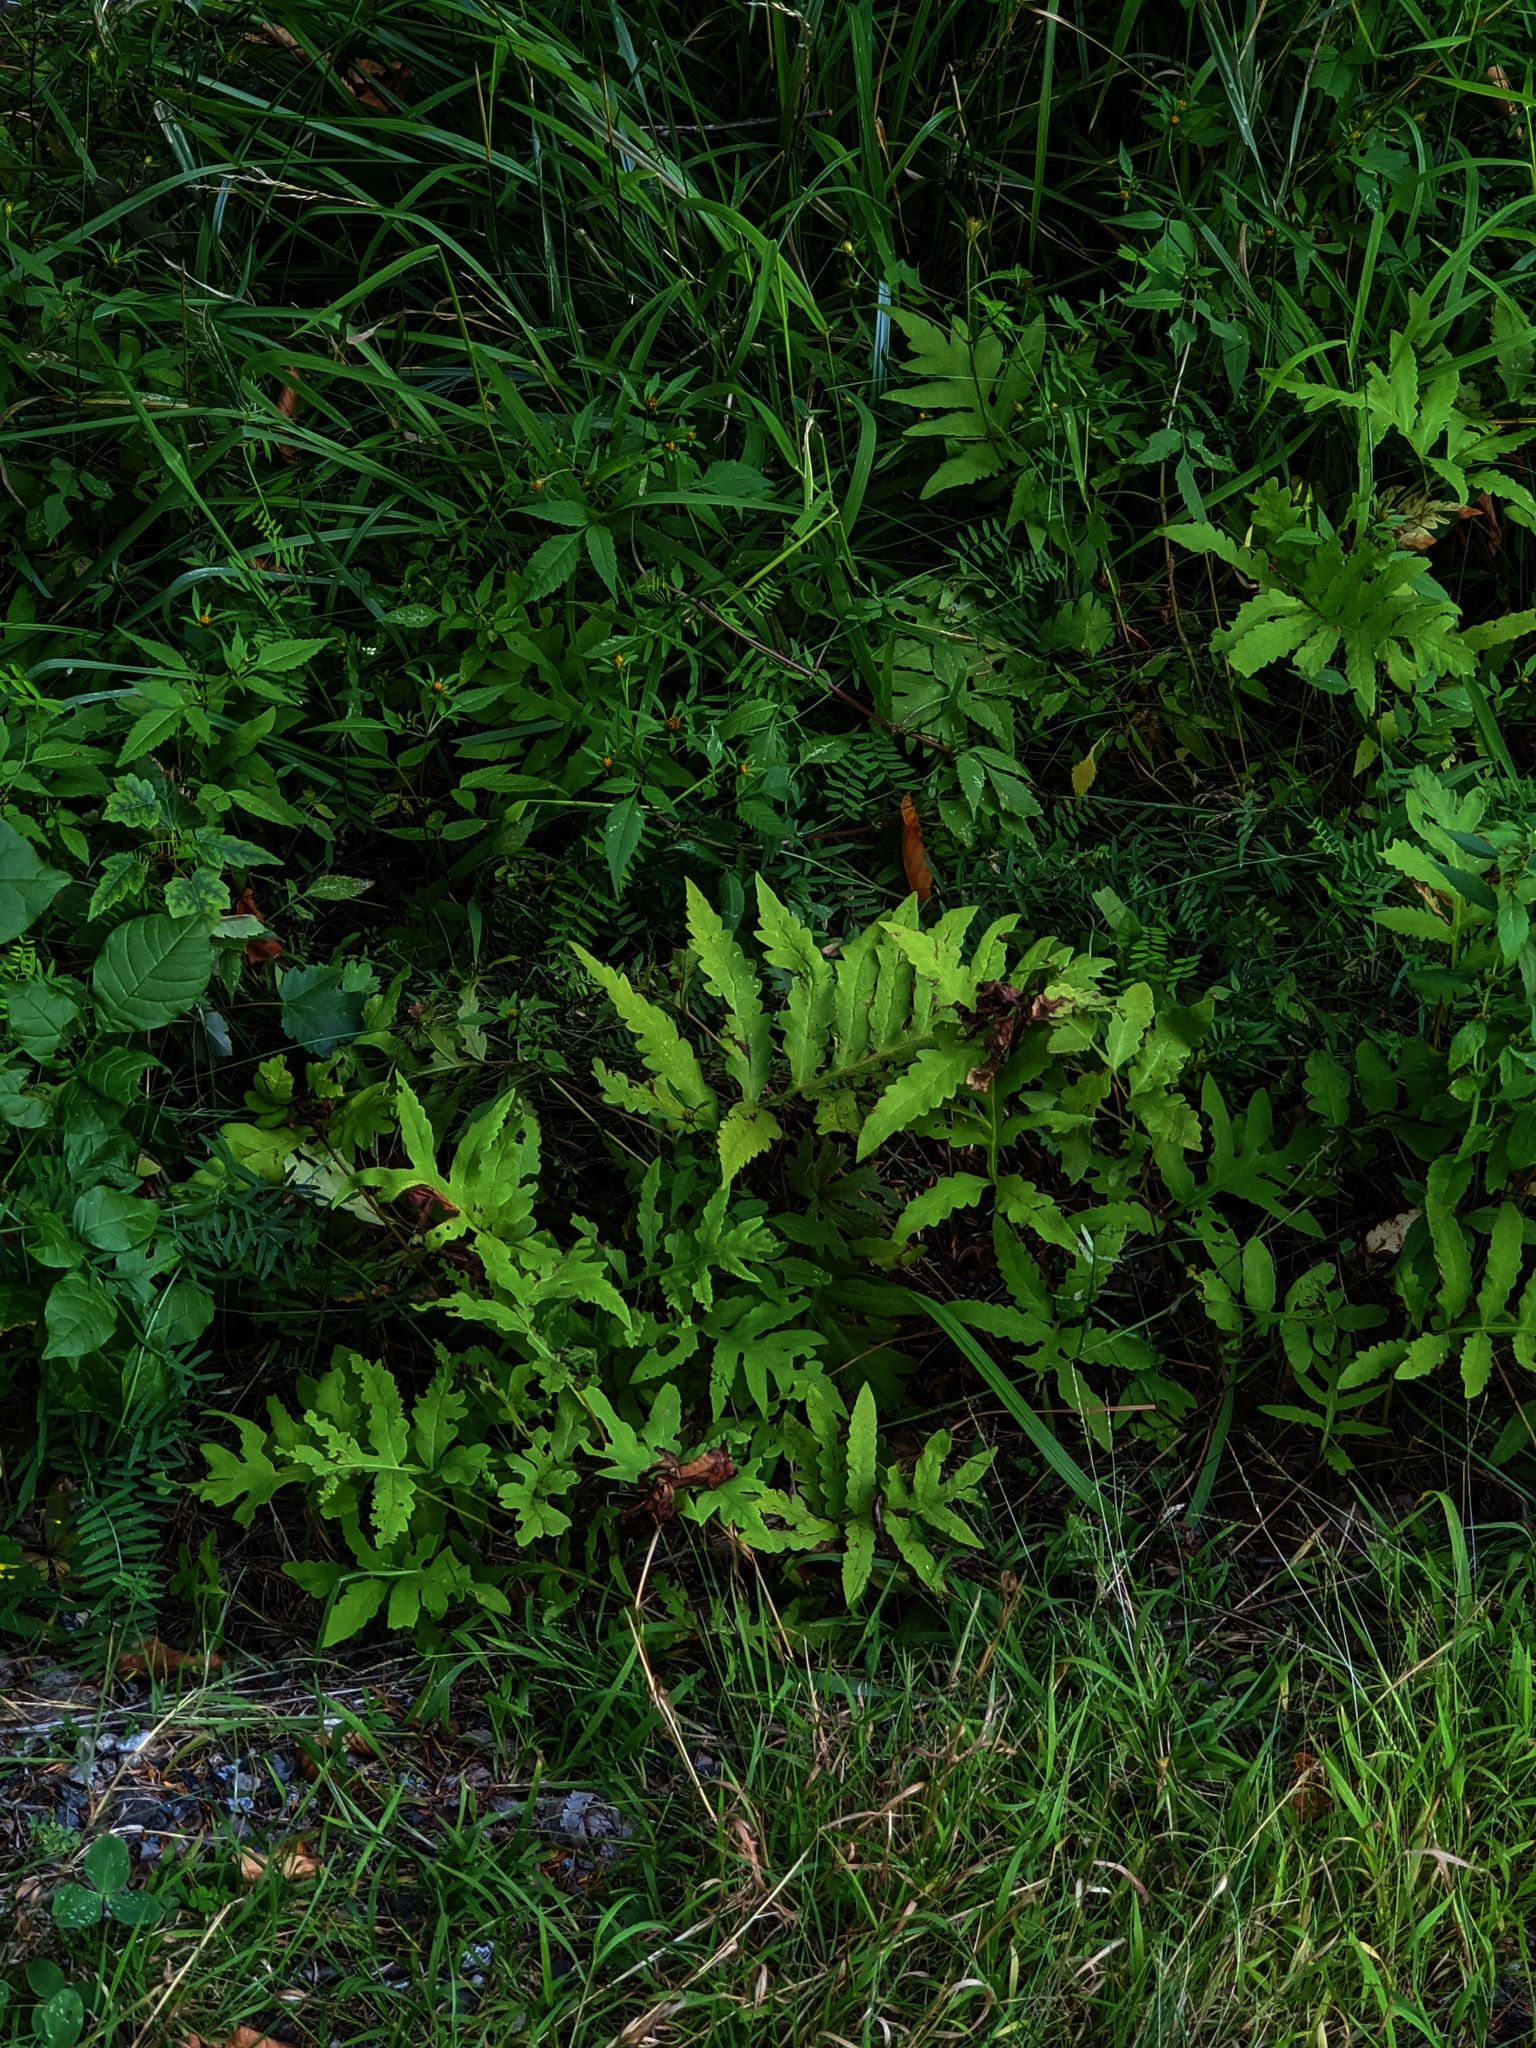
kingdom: Plantae
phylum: Tracheophyta
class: Polypodiopsida
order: Polypodiales
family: Onocleaceae
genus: Onoclea
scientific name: Onoclea sensibilis
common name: Sensitive fern
